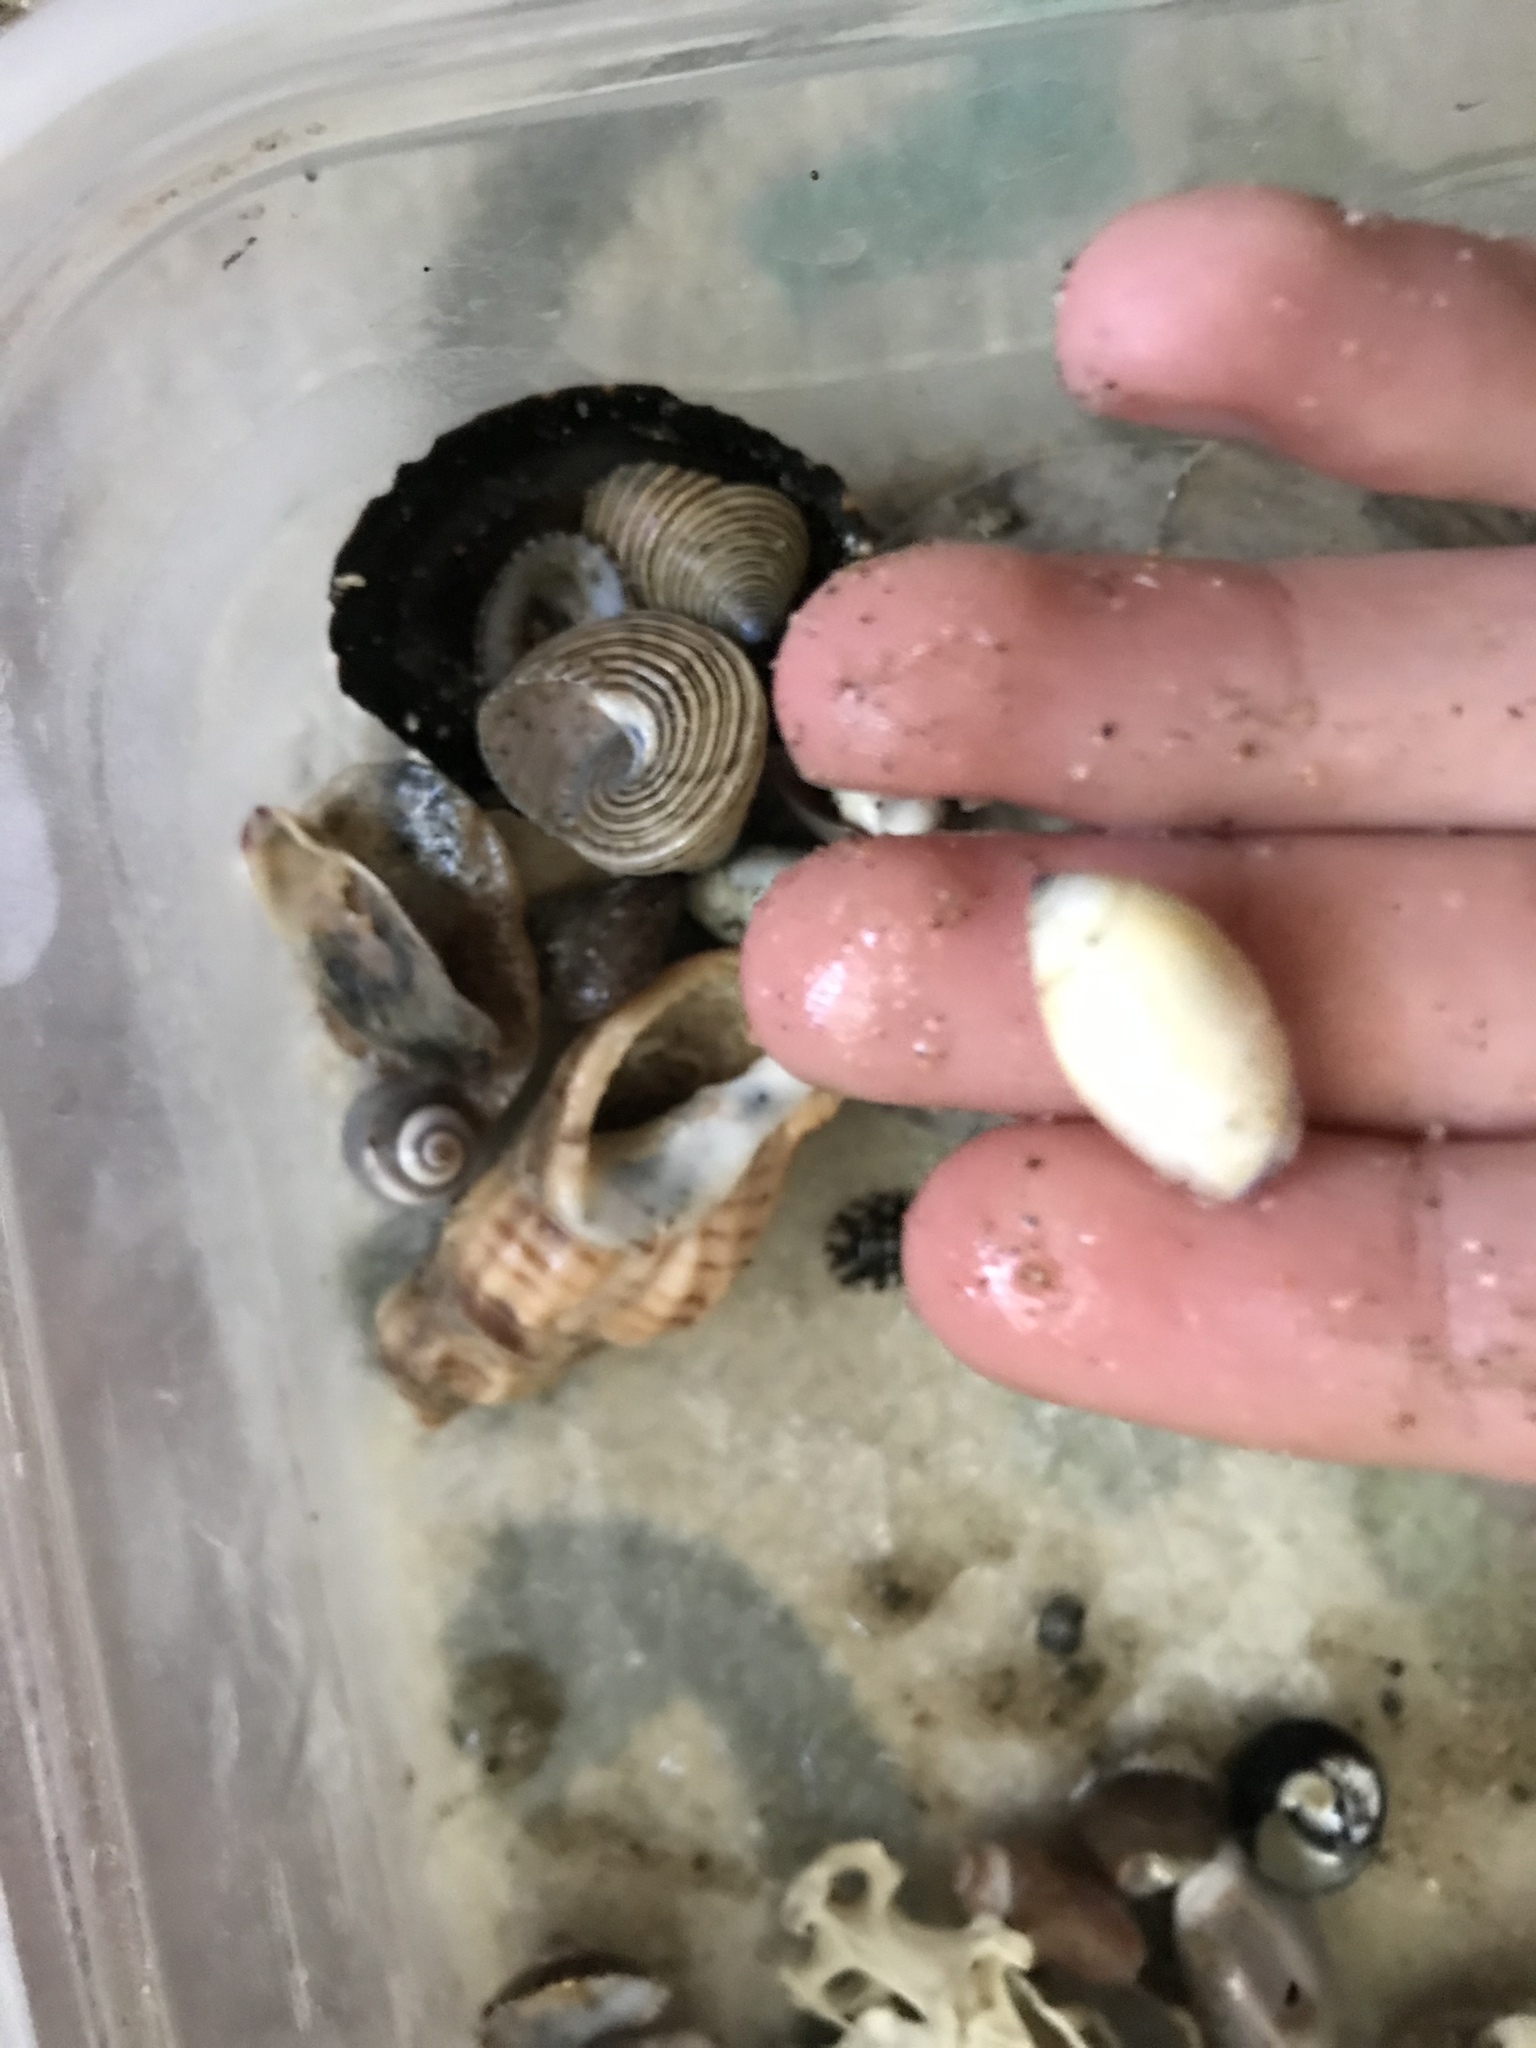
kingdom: Animalia
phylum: Mollusca
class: Gastropoda
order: Neogastropoda
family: Olividae
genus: Callianax
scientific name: Callianax biplicata
